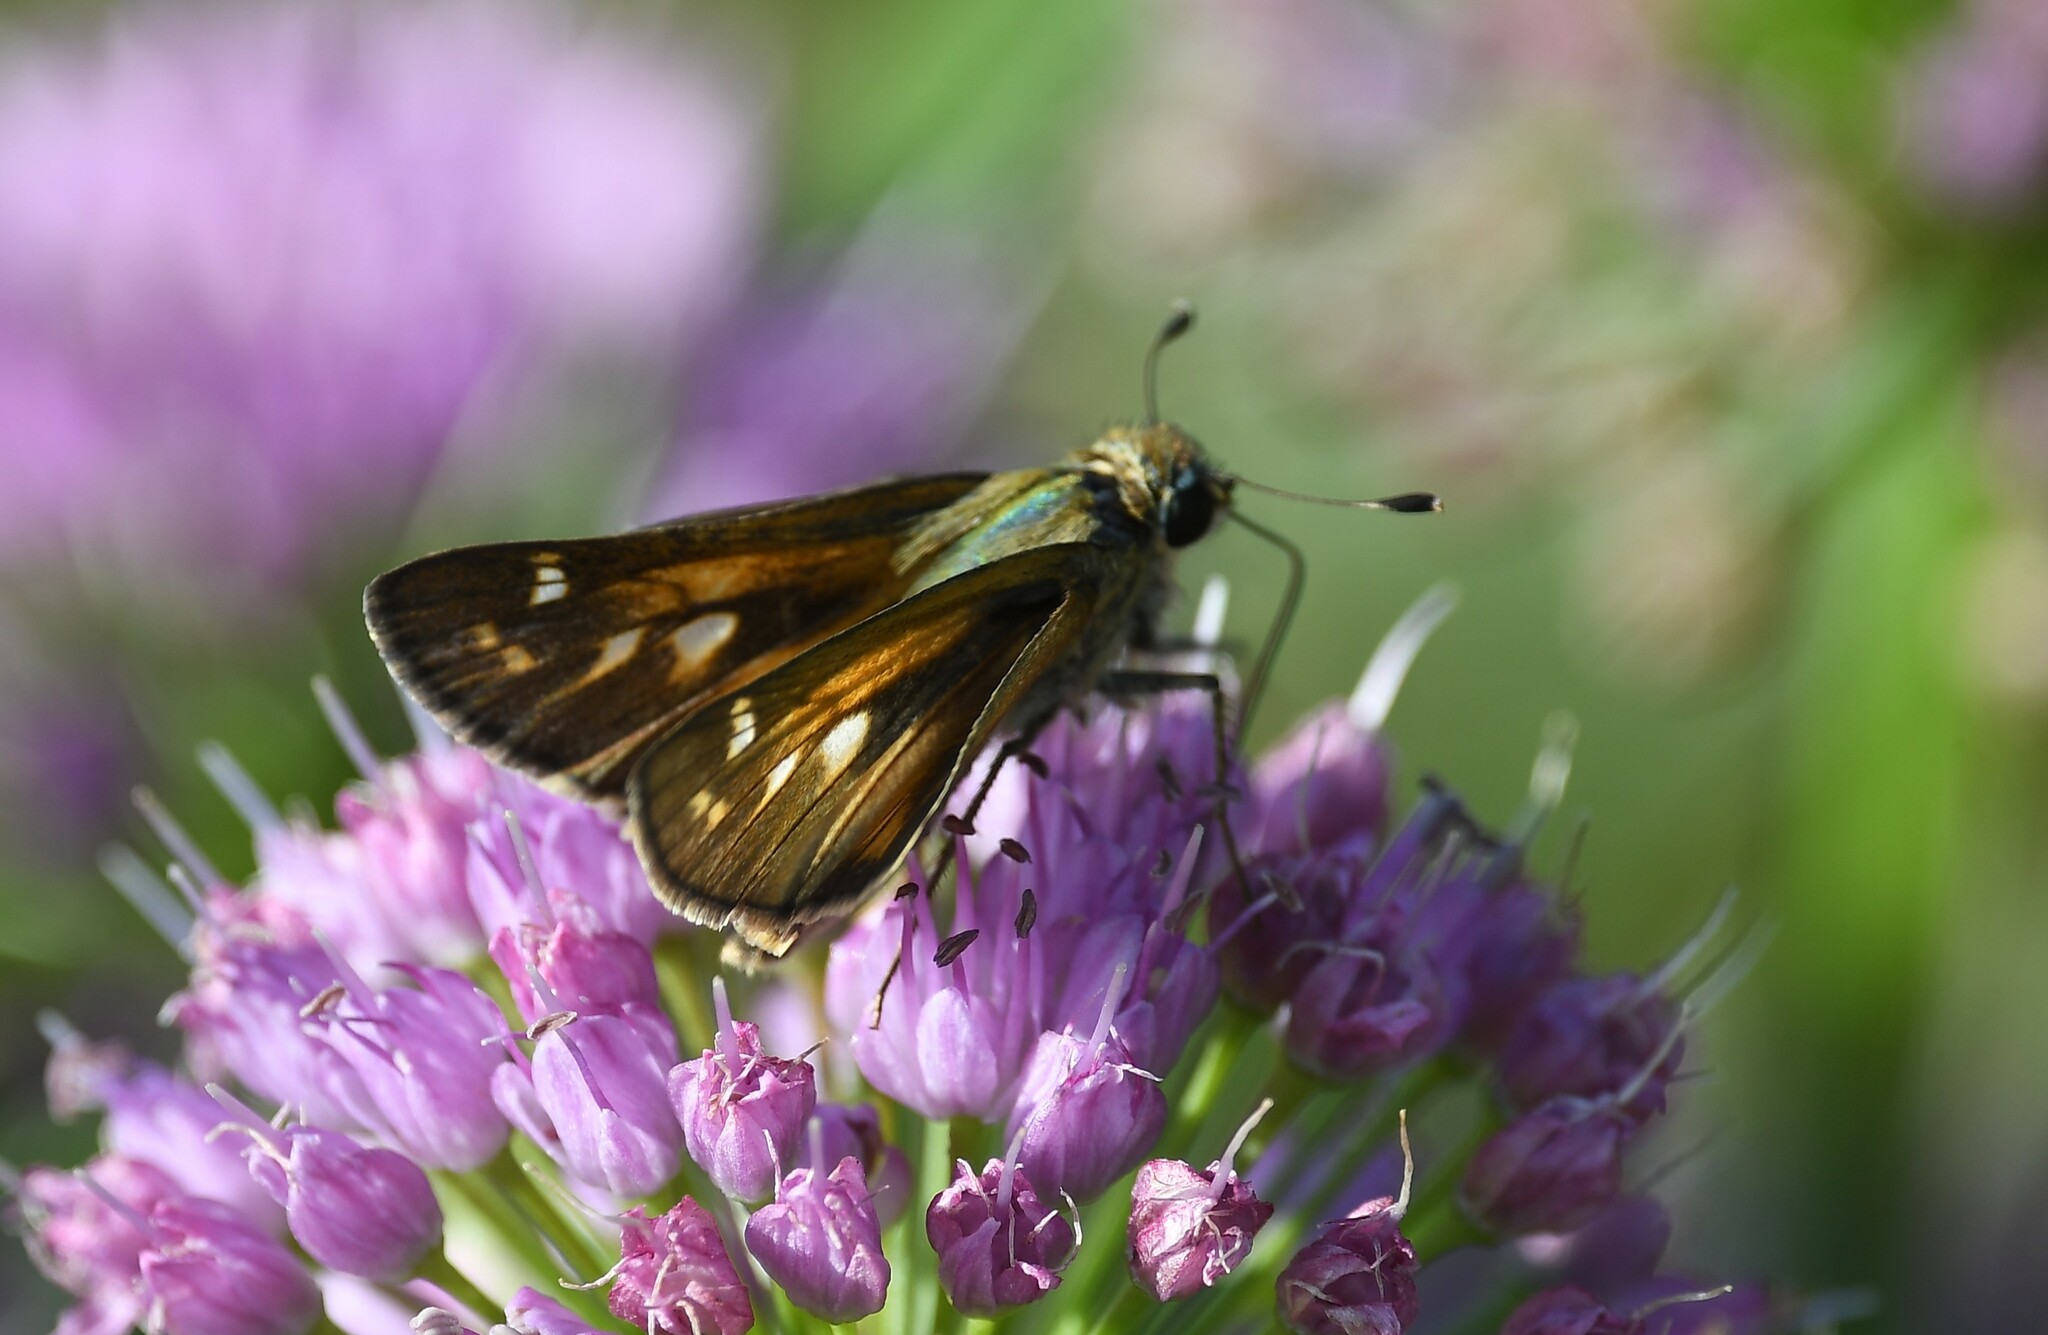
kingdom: Animalia
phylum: Arthropoda
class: Insecta
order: Lepidoptera
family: Hesperiidae
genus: Atalopedes
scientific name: Atalopedes
